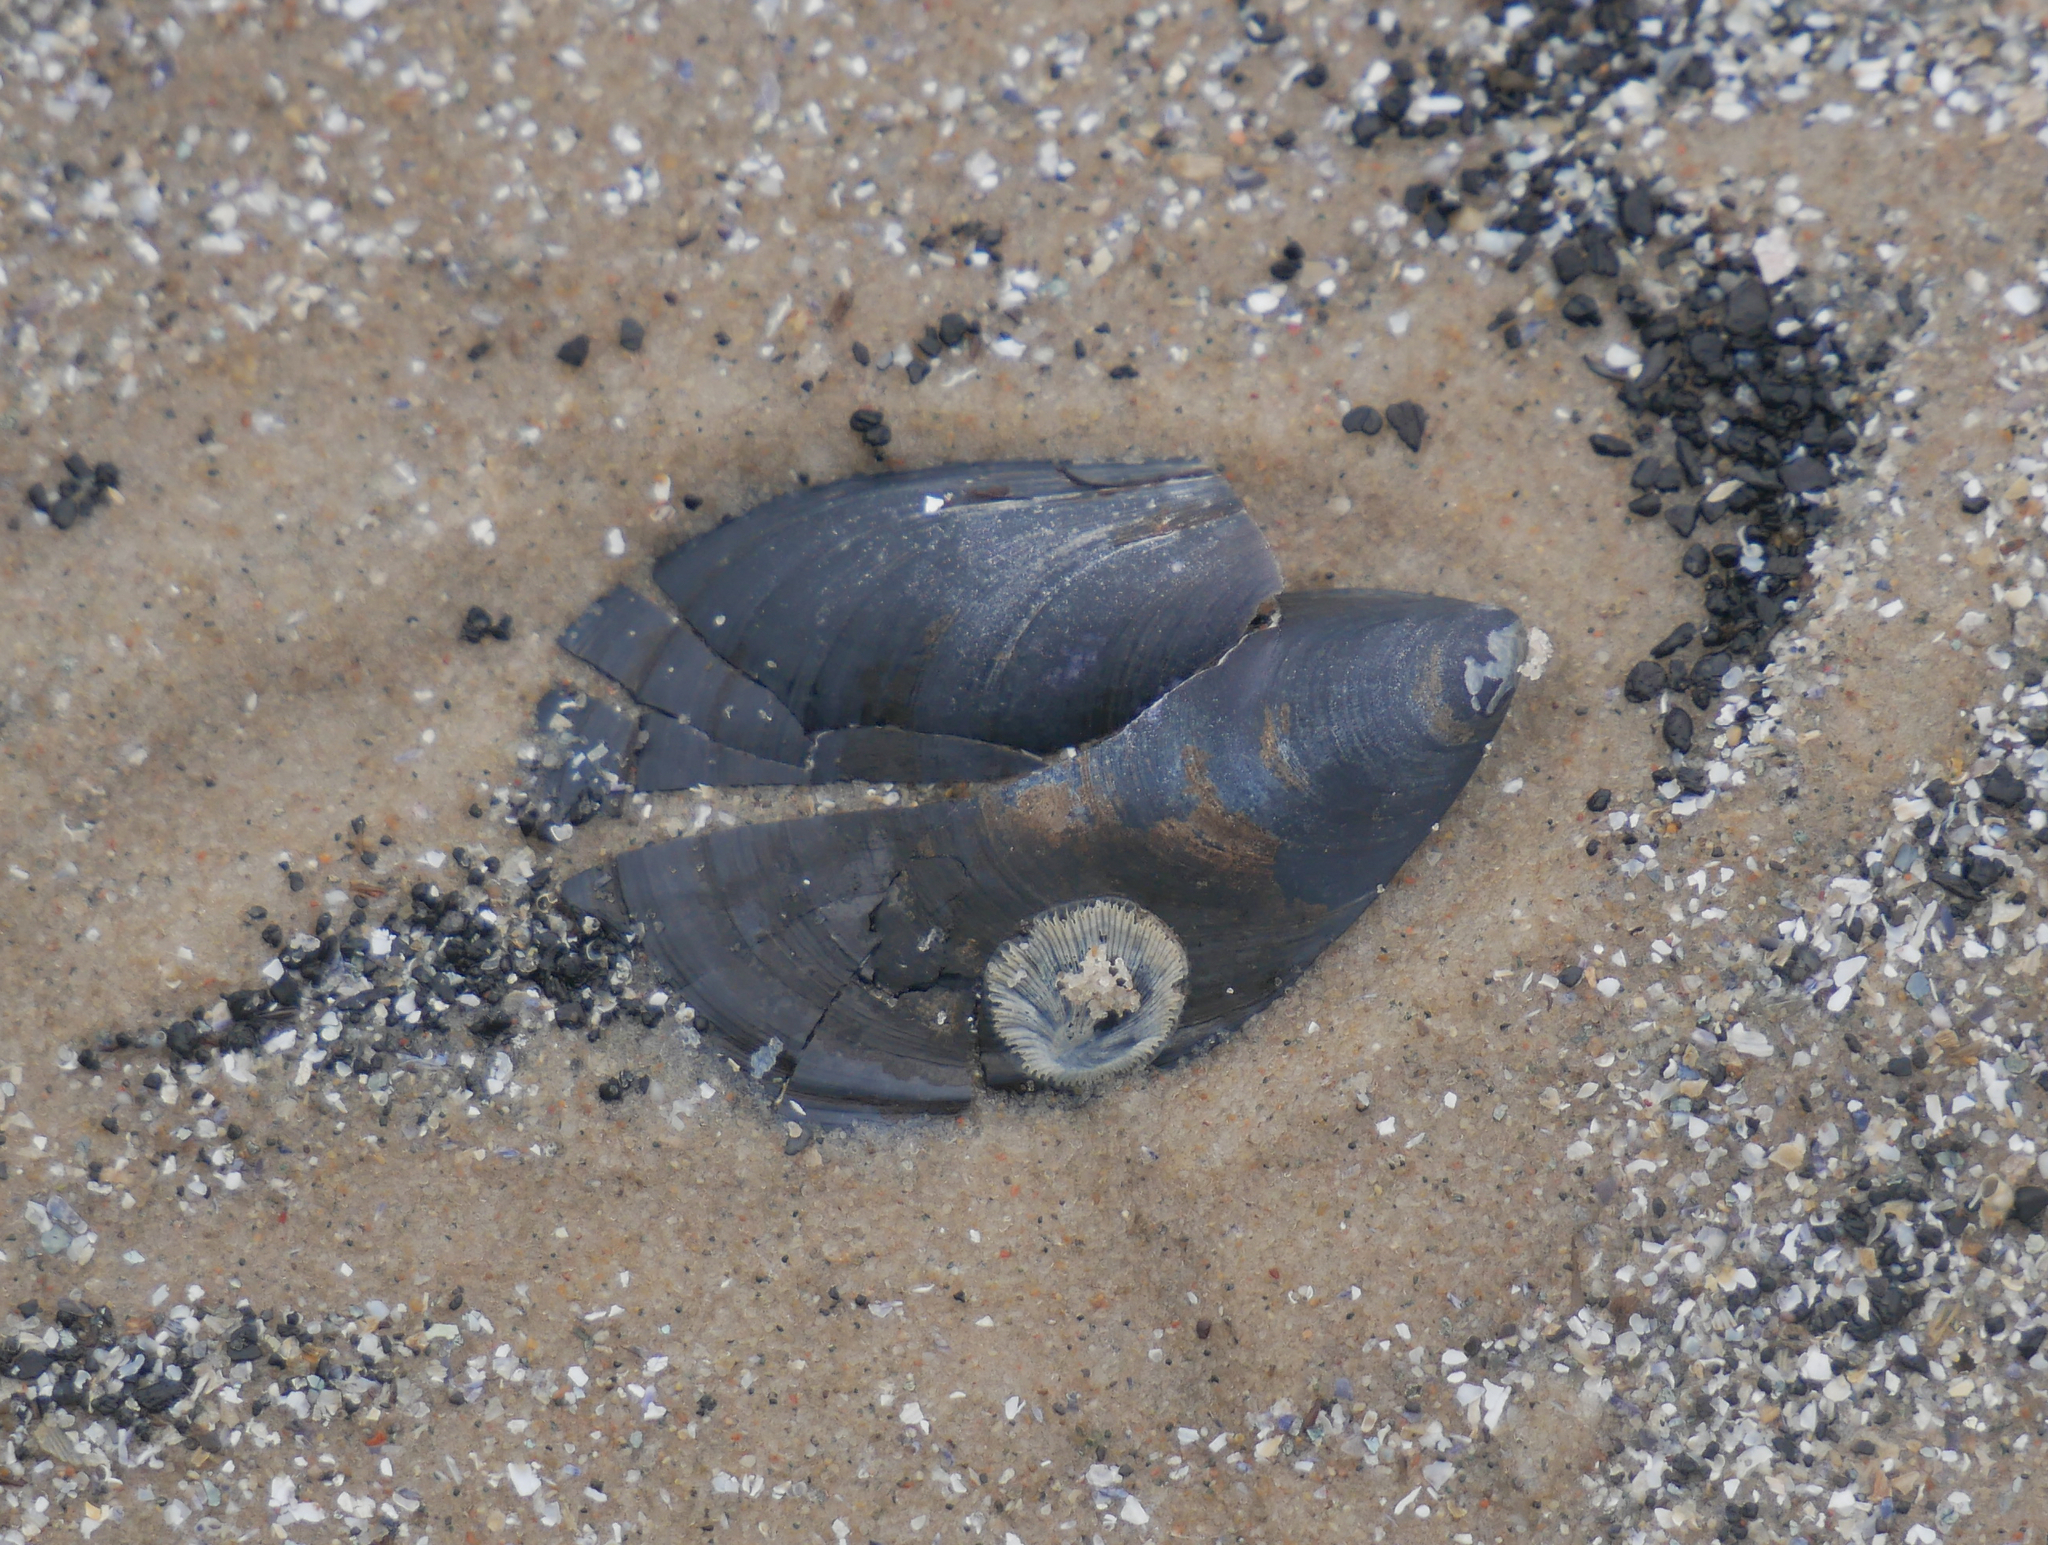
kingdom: Animalia
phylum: Mollusca
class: Bivalvia
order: Mytilida
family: Mytilidae
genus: Mytilus
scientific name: Mytilus edulis
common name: Blue mussel
